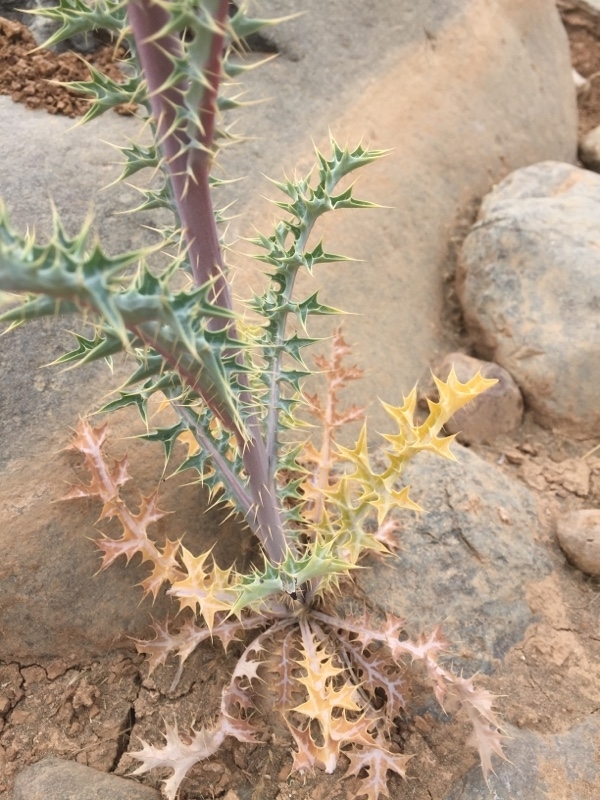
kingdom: Plantae
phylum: Tracheophyta
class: Magnoliopsida
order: Ranunculales
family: Papaveraceae
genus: Argemone
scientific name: Argemone ochroleuca
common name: White-flower mexican-poppy
